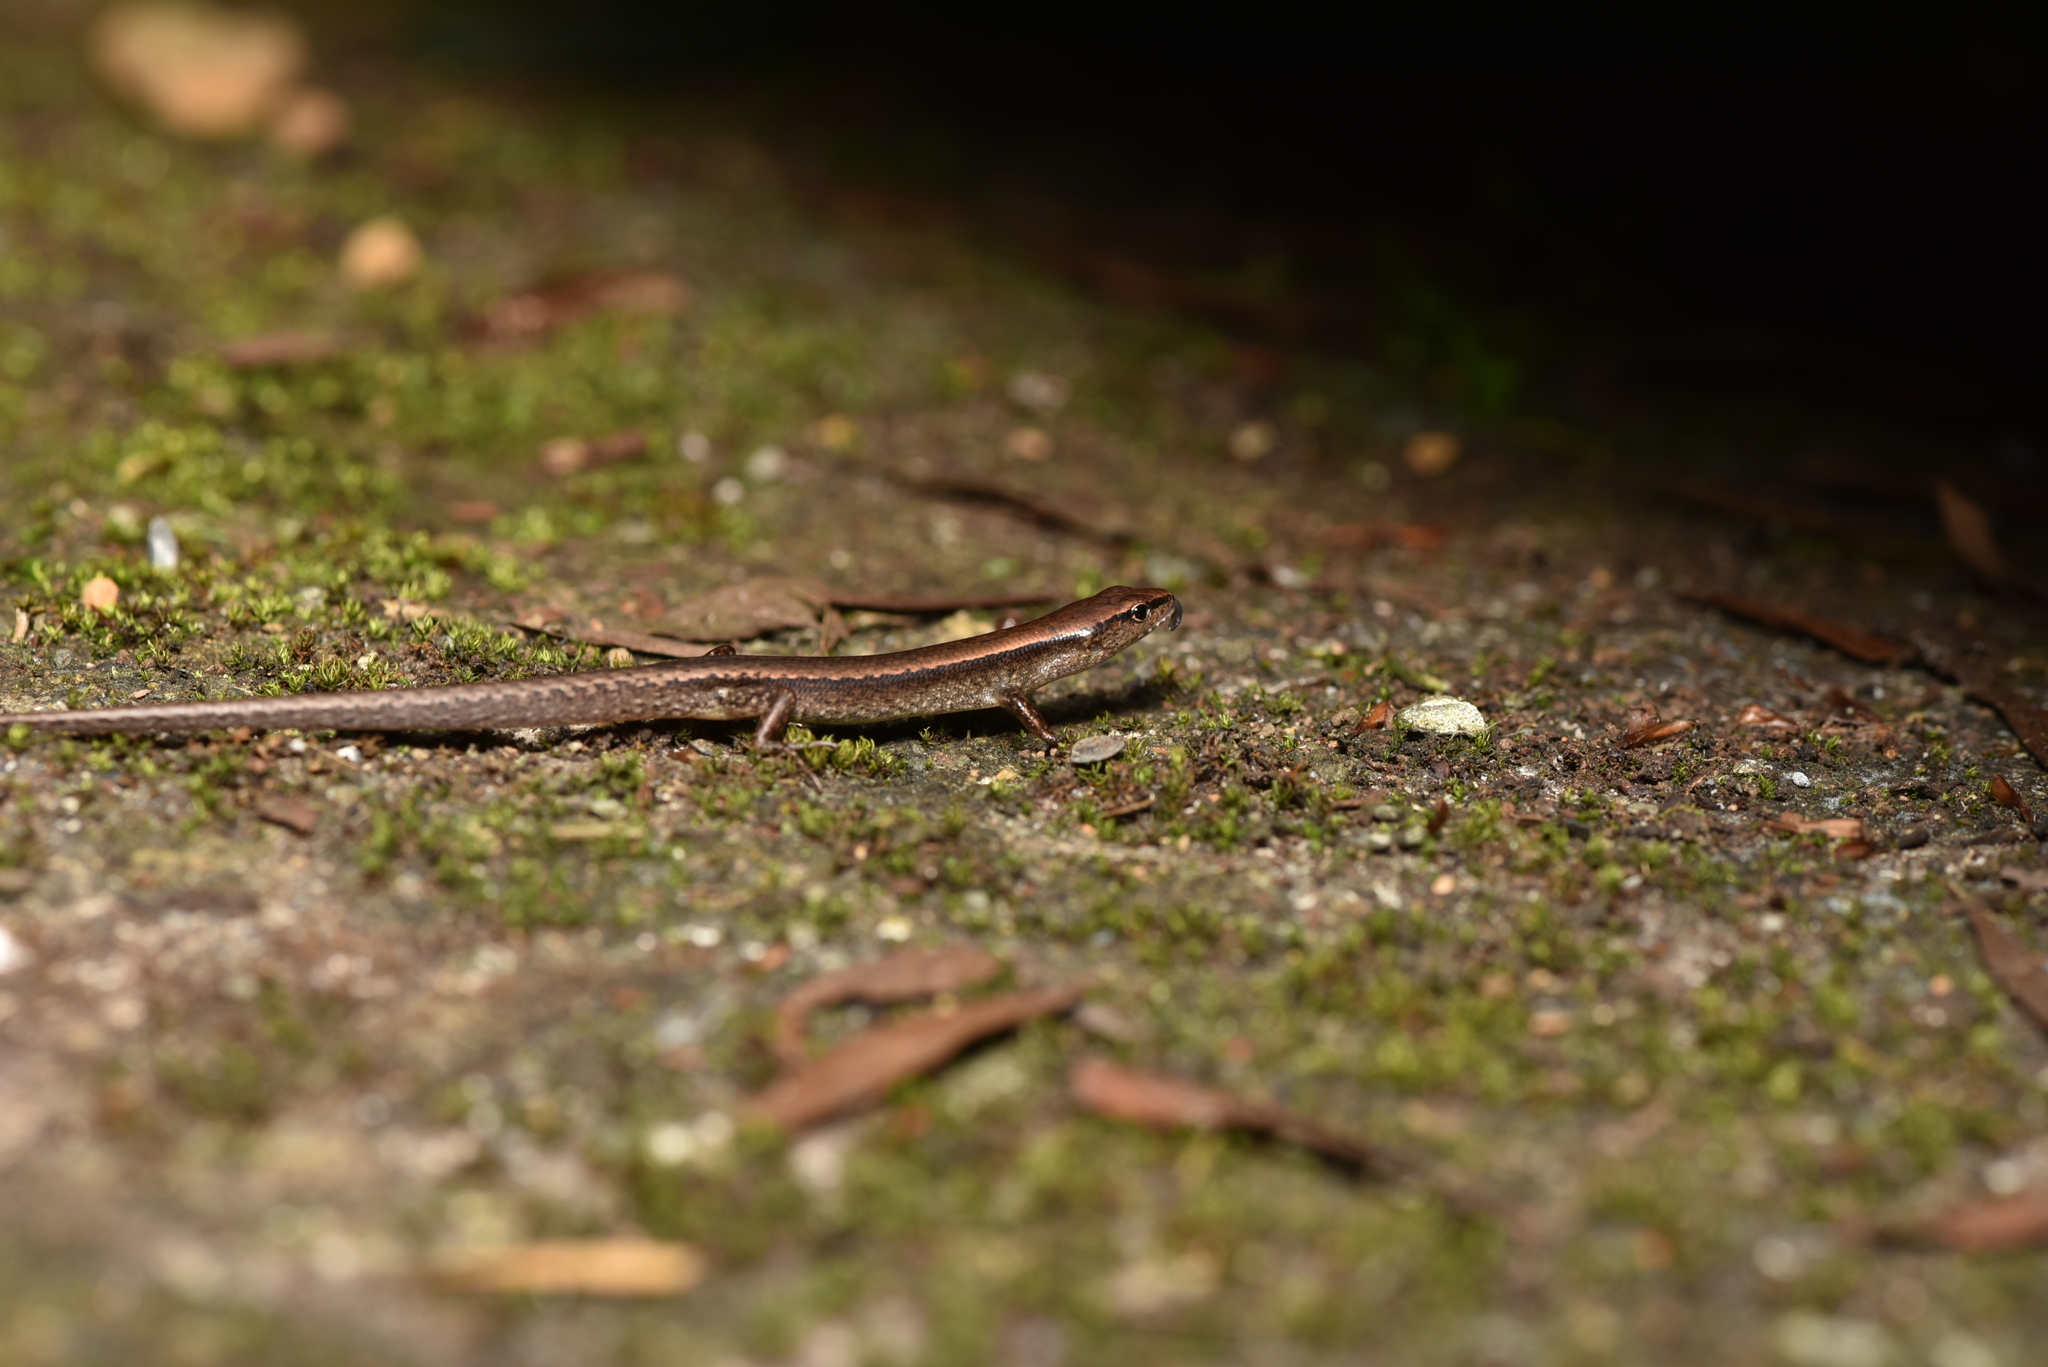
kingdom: Animalia
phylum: Chordata
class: Squamata
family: Scincidae
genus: Scincella
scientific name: Scincella formosensis
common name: Van denburgh's ground skink
